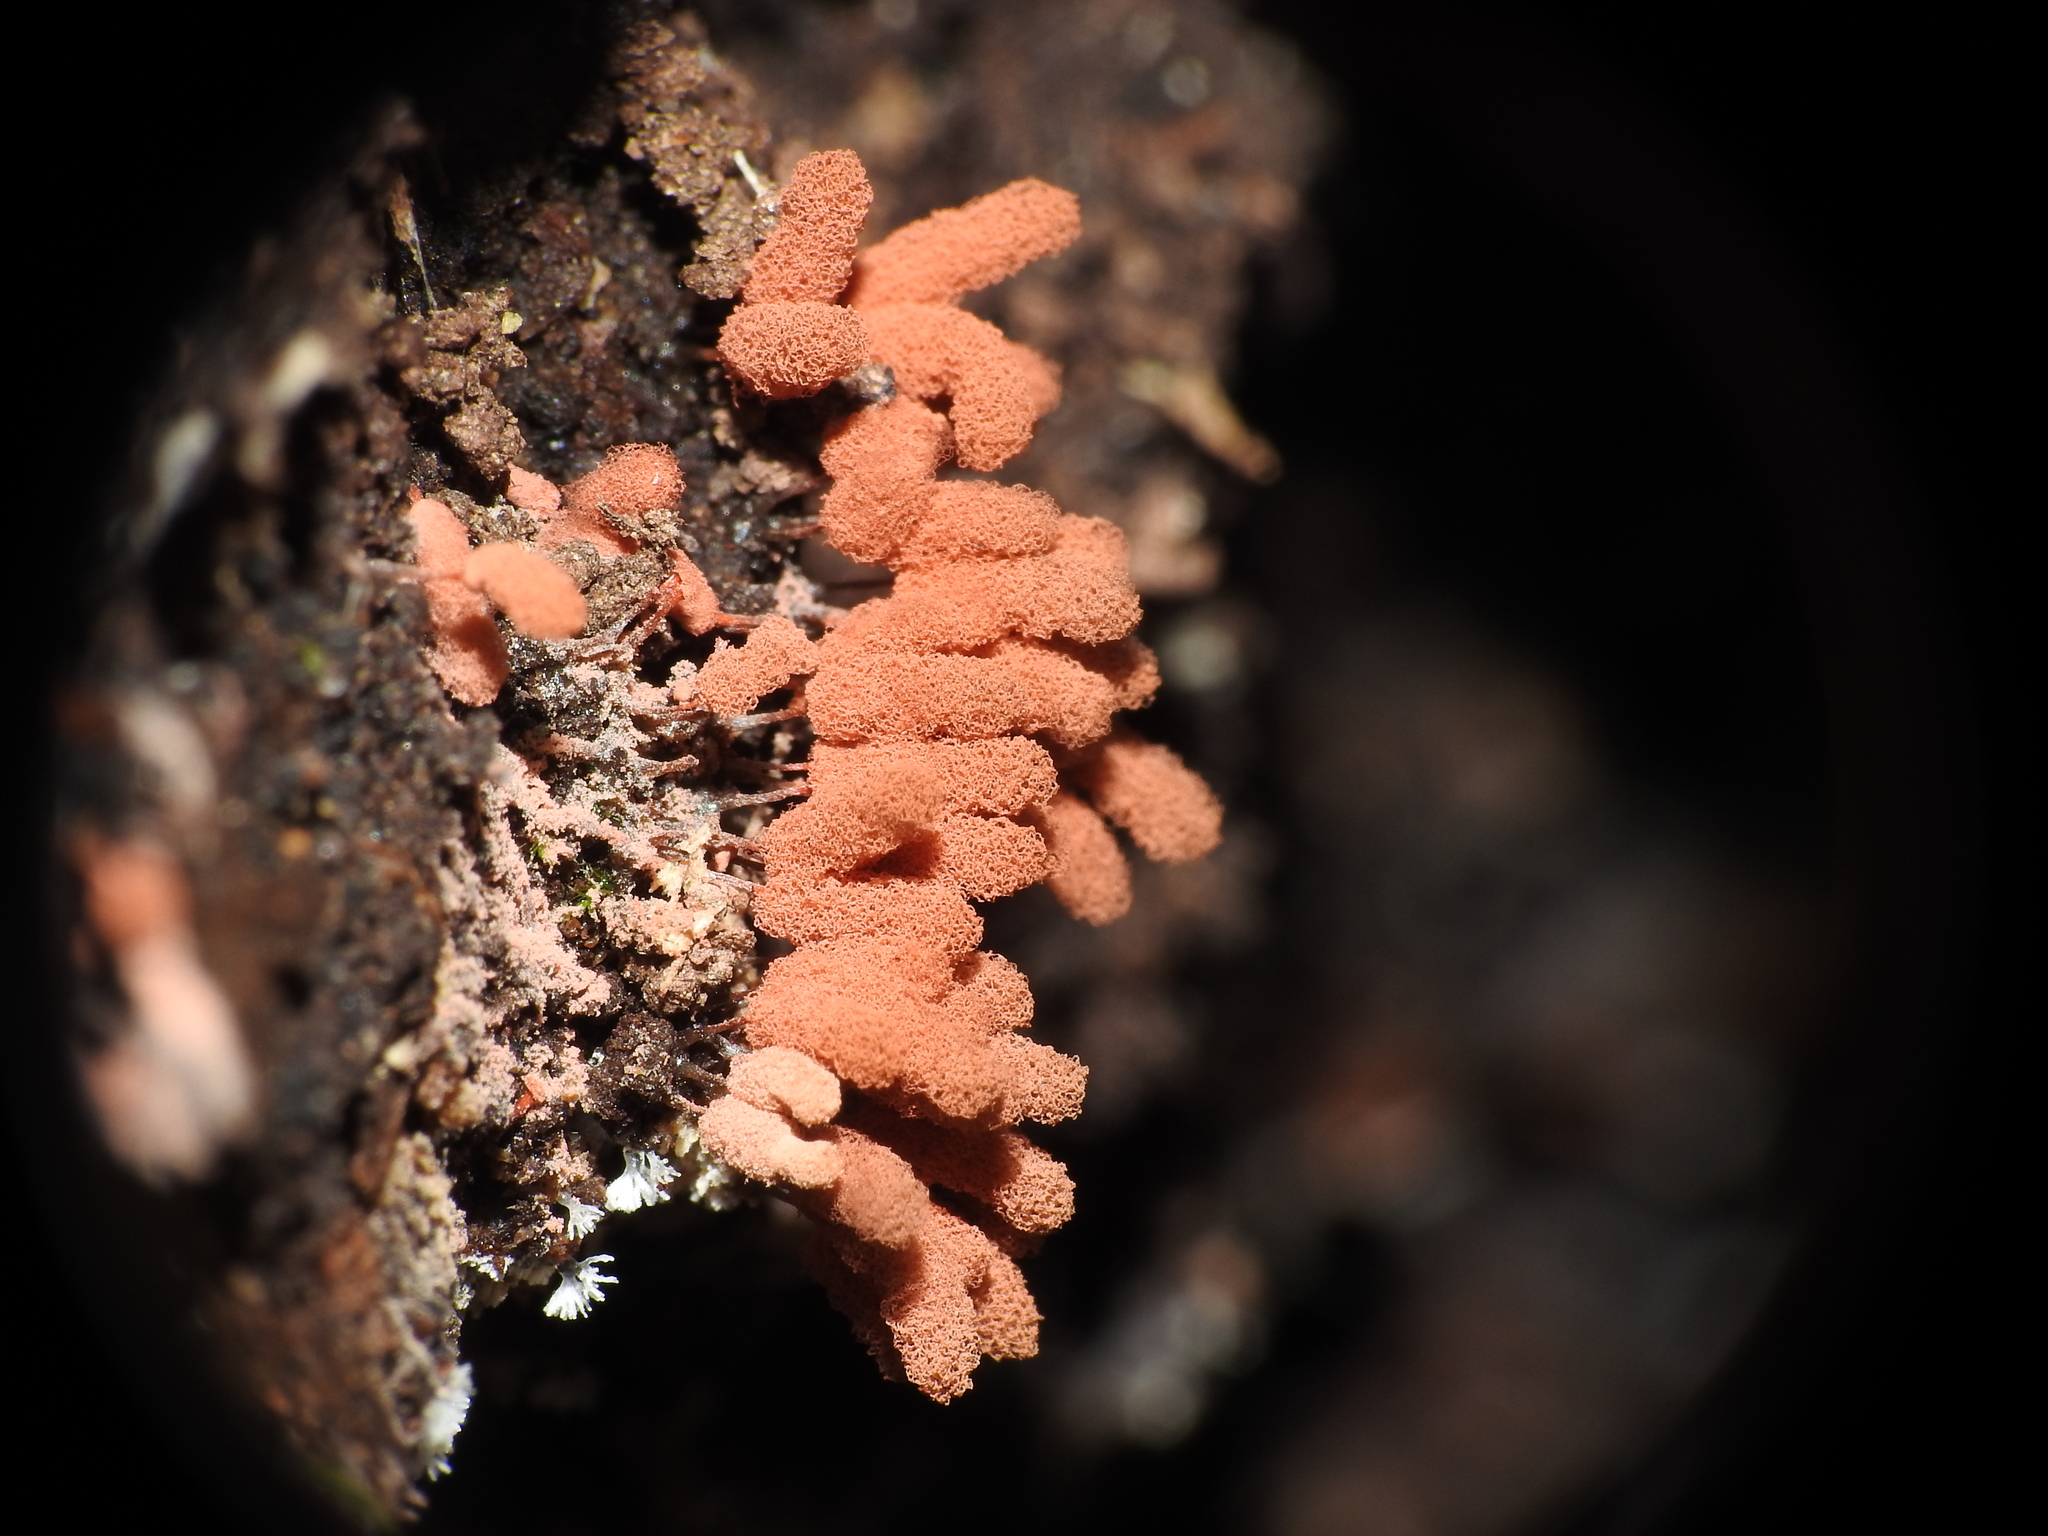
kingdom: Protozoa
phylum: Mycetozoa
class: Myxomycetes
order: Trichiales
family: Arcyriaceae
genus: Arcyria
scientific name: Arcyria denudata
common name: Carnival candy slime mold
